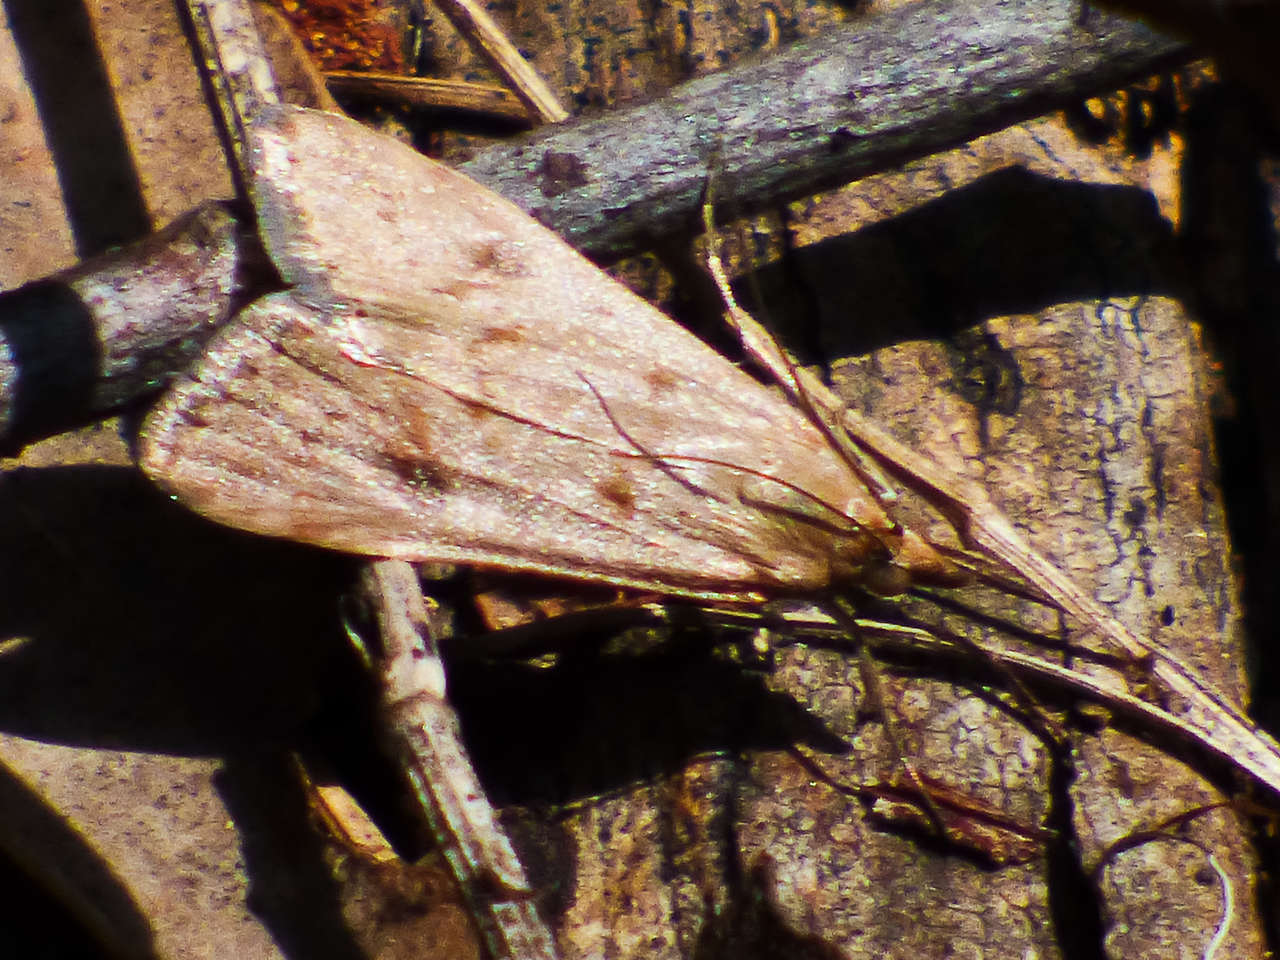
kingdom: Animalia
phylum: Arthropoda
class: Insecta
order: Lepidoptera
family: Crambidae
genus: Achyra
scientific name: Achyra affinitalis
